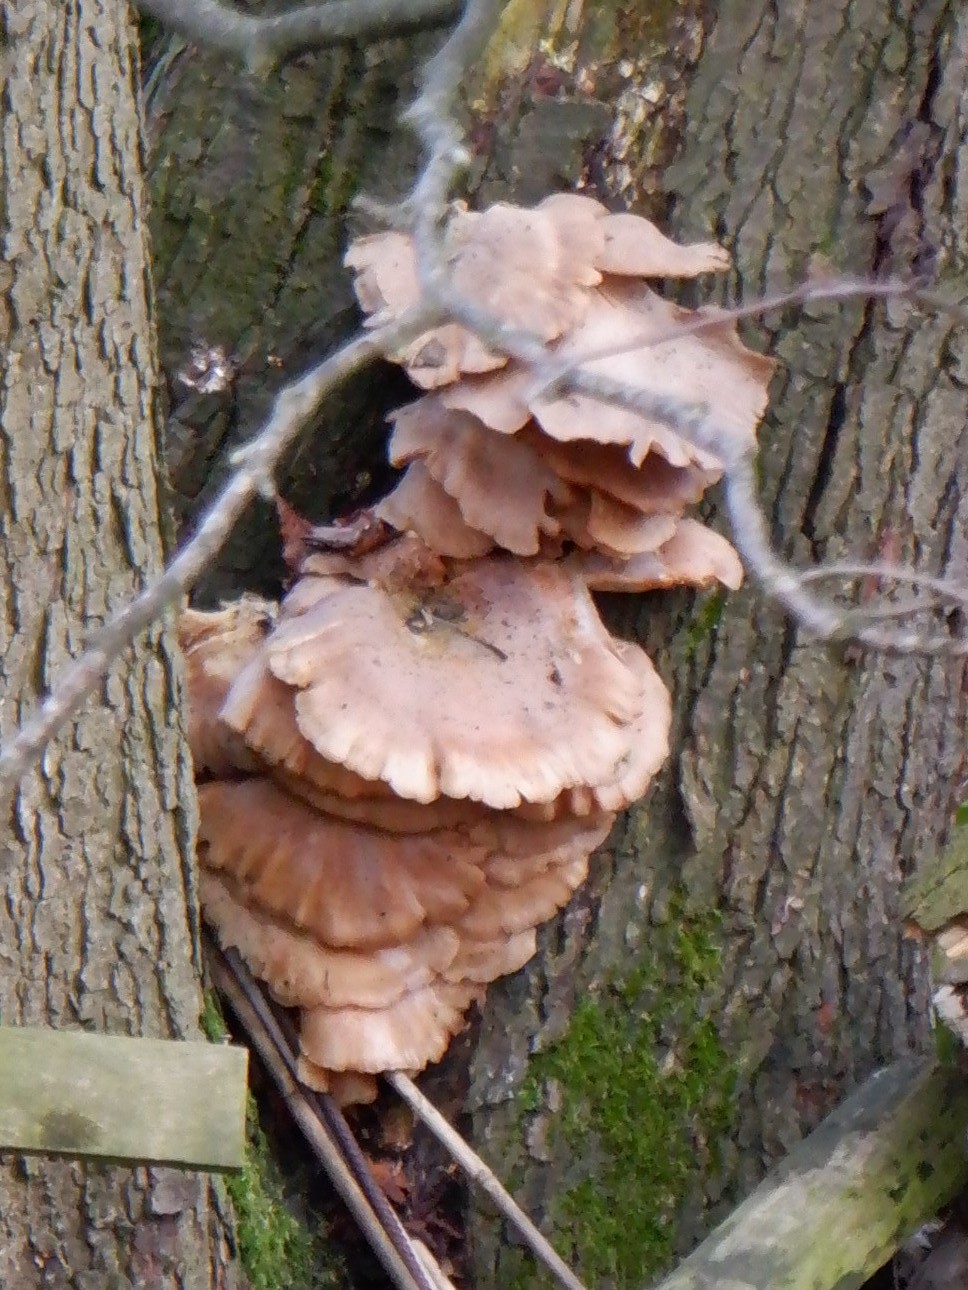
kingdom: Fungi
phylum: Basidiomycota
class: Agaricomycetes
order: Polyporales
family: Laetiporaceae
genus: Laetiporus
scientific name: Laetiporus sulphureus
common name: Chicken of the woods
